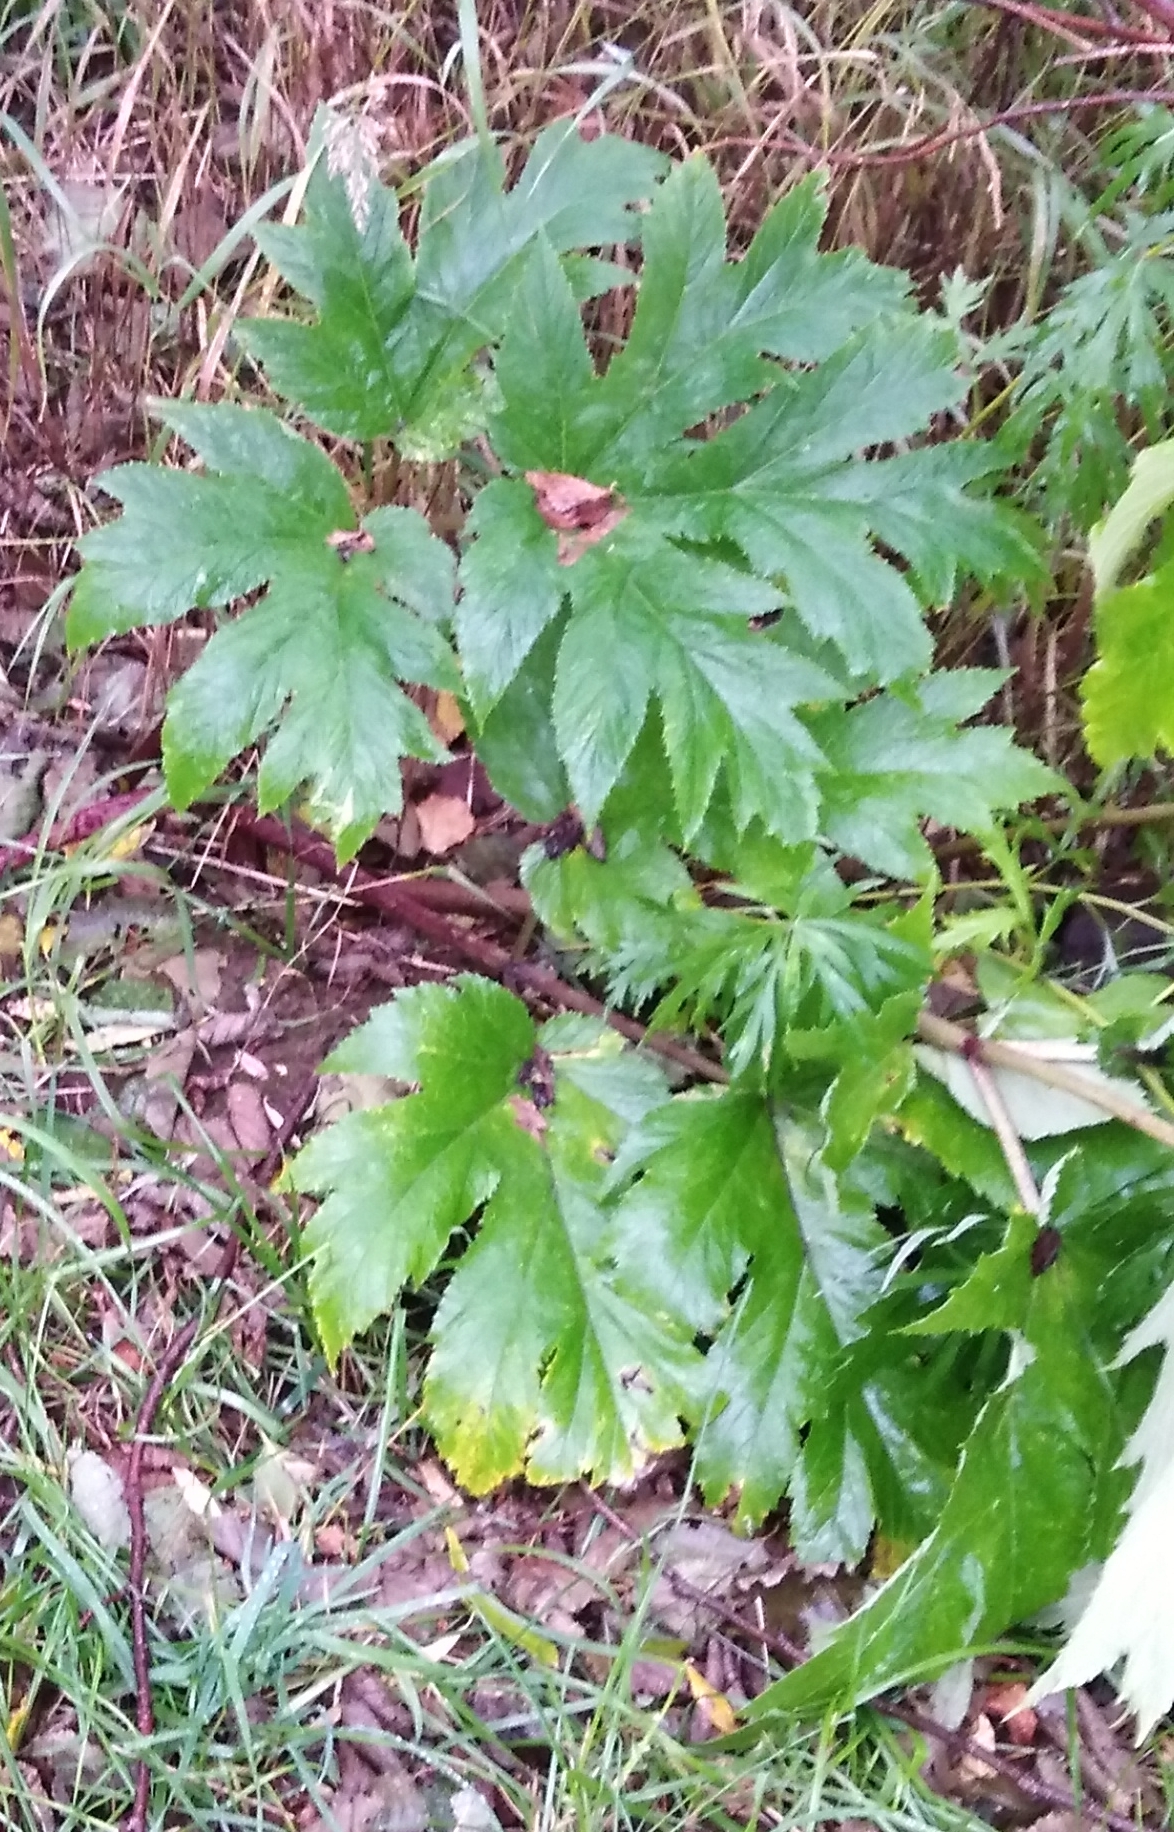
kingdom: Plantae
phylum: Tracheophyta
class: Magnoliopsida
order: Apiales
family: Apiaceae
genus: Heracleum
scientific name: Heracleum maximum
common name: American cow parsnip
